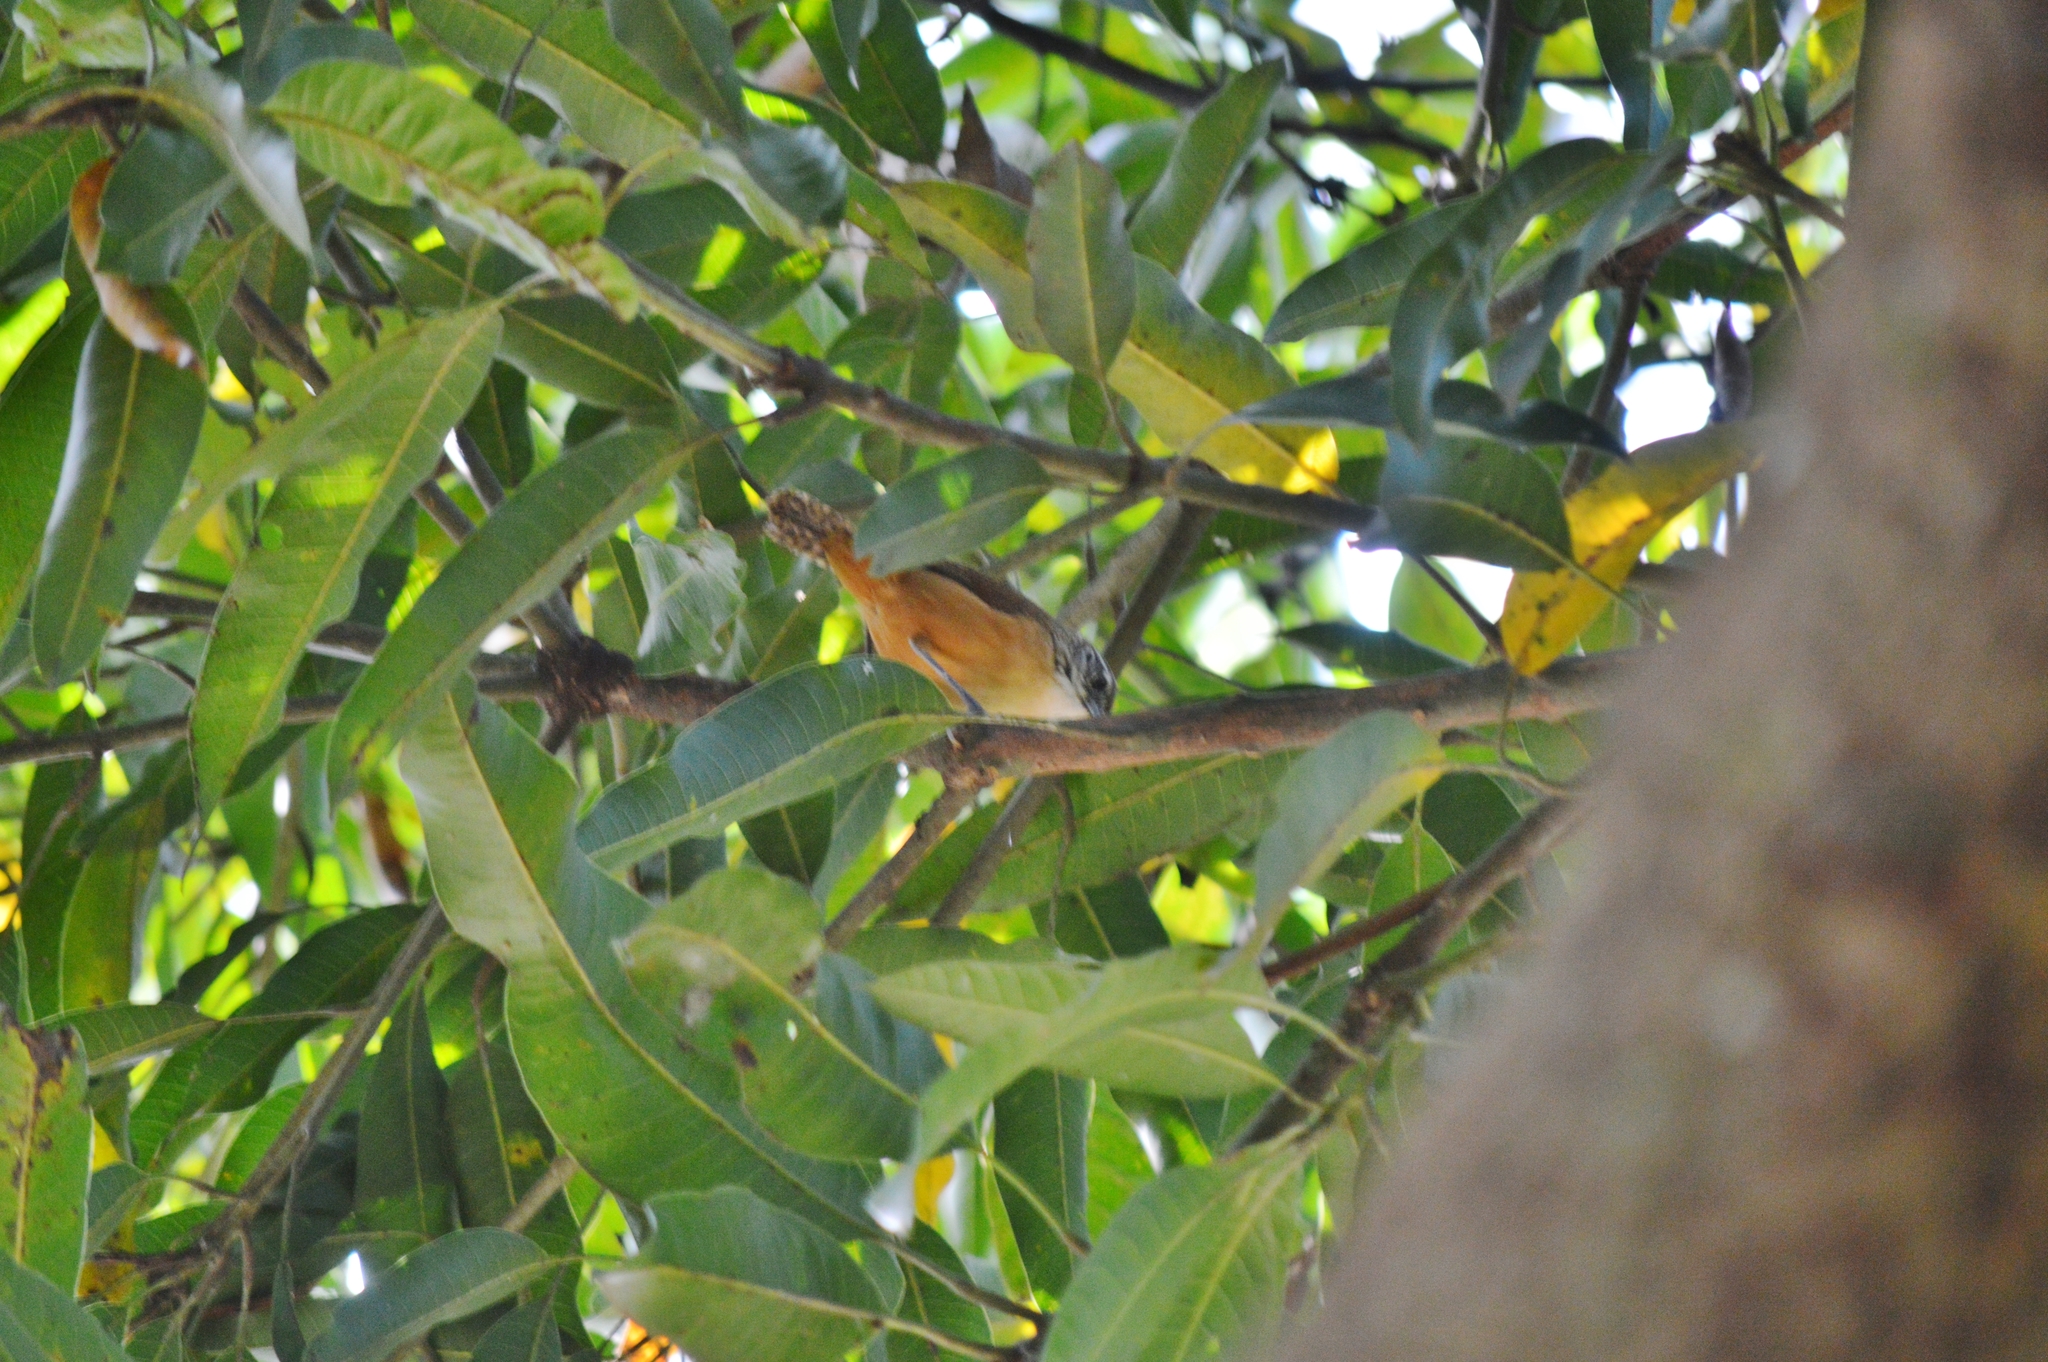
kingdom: Animalia
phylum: Chordata
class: Aves
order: Passeriformes
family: Troglodytidae
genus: Cantorchilus
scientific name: Cantorchilus leucotis
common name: Buff-breasted wren
